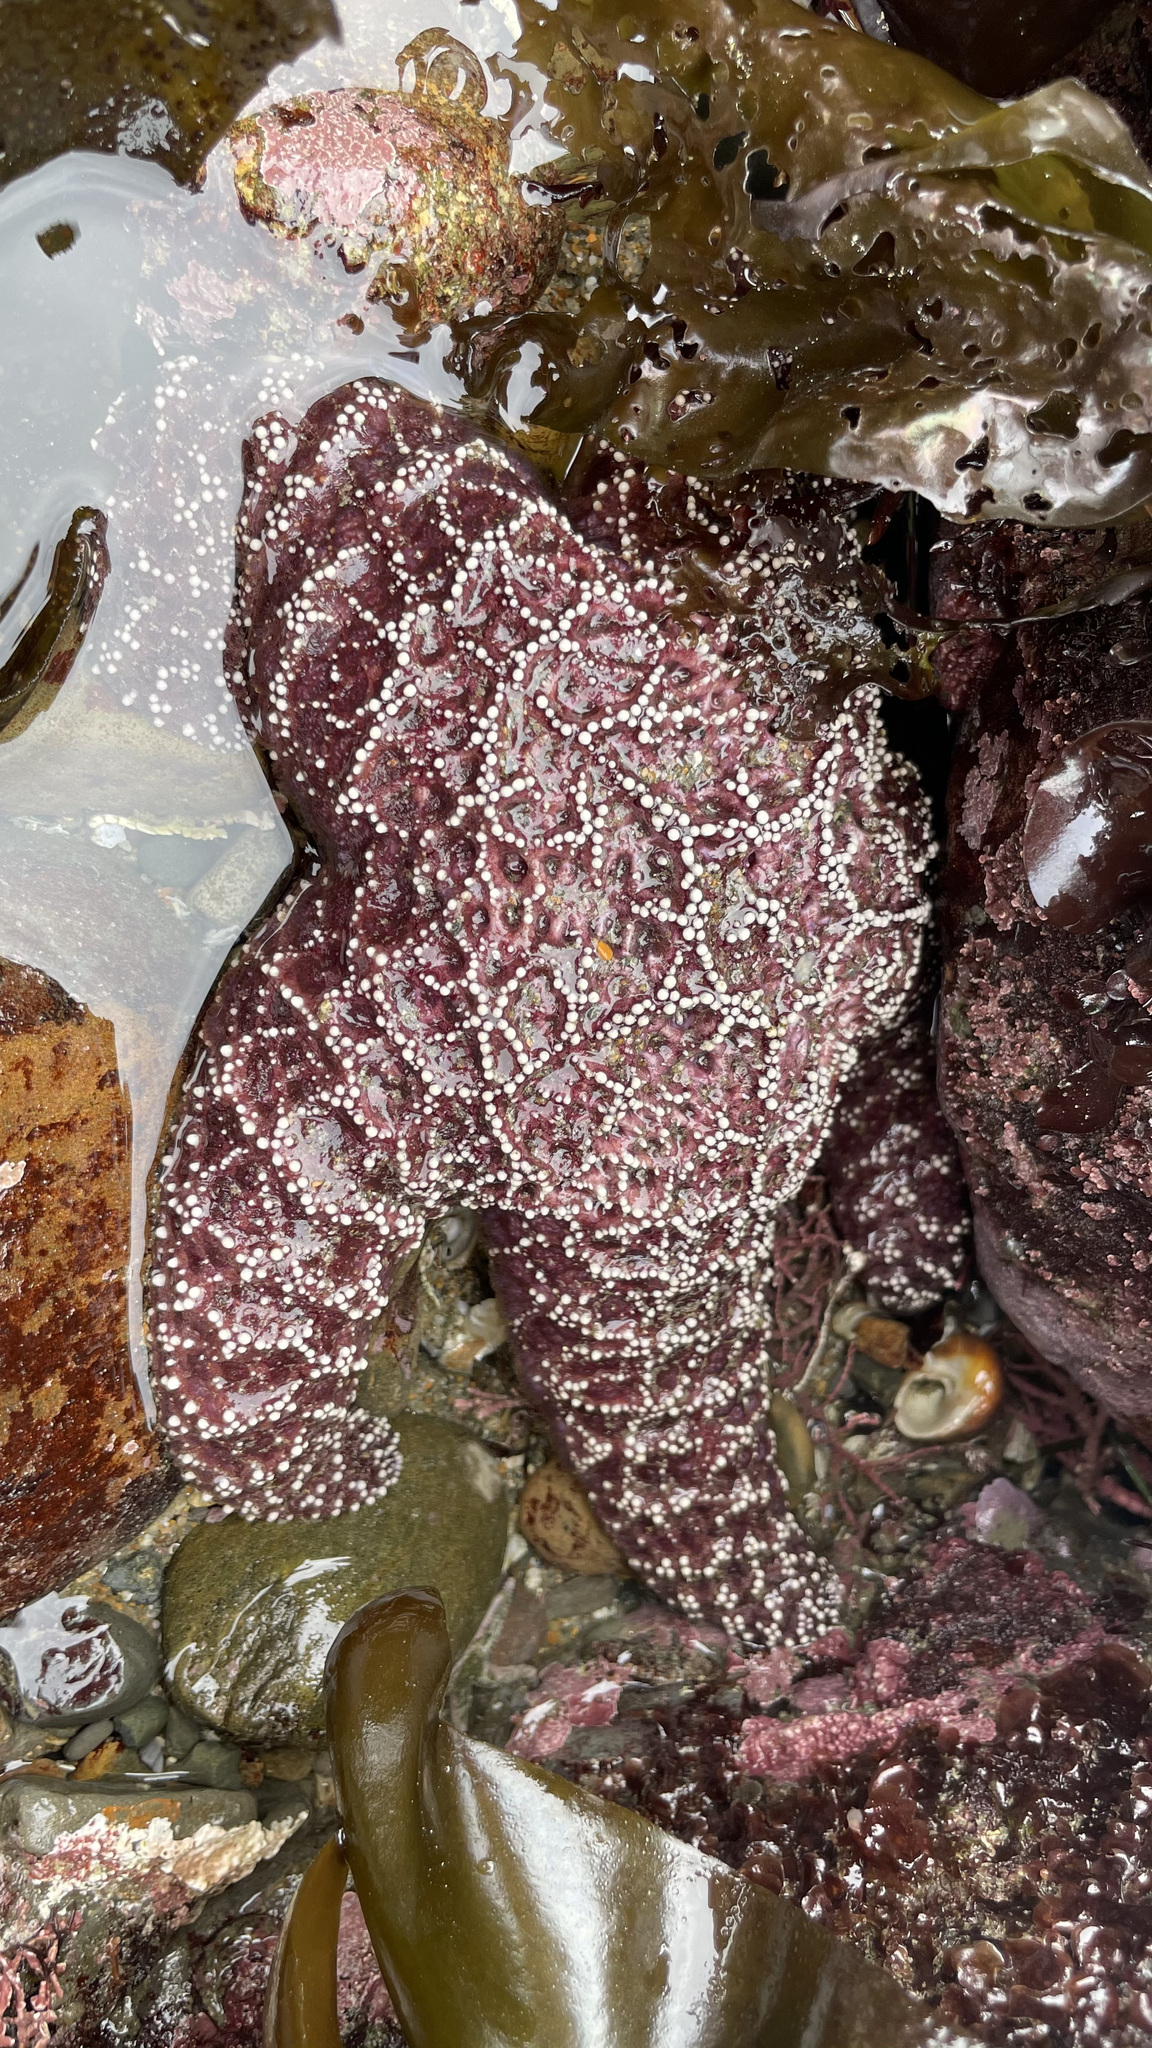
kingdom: Animalia
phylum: Echinodermata
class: Asteroidea
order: Forcipulatida
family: Asteriidae
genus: Pisaster
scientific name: Pisaster ochraceus
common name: Ochre stars
